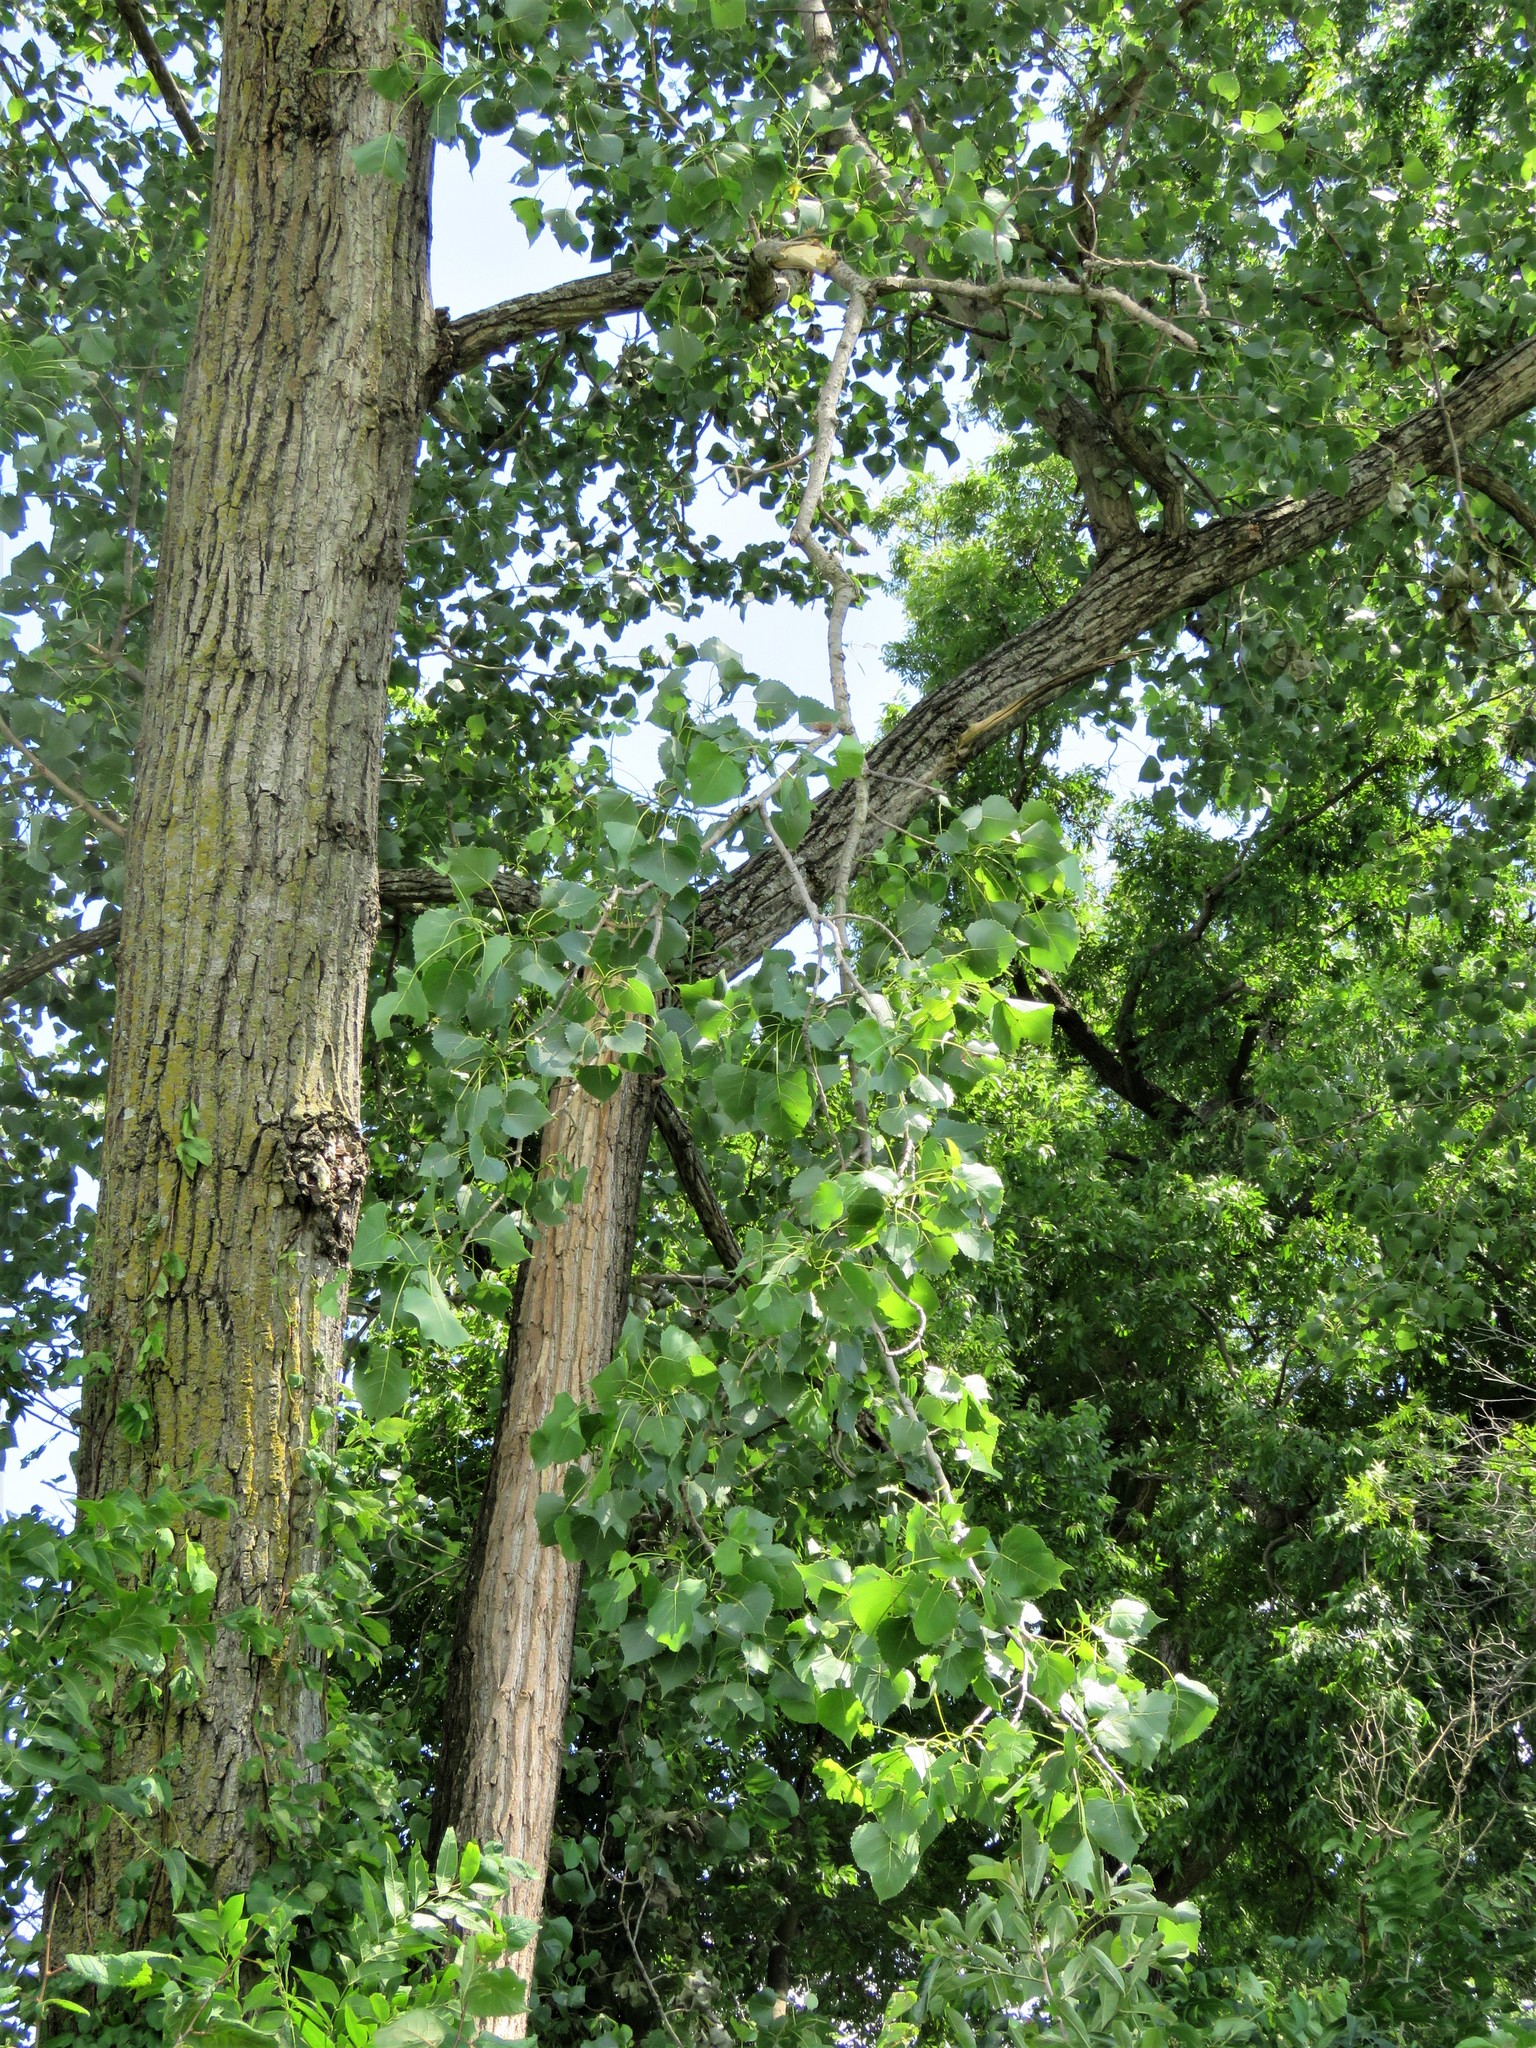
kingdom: Plantae
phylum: Tracheophyta
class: Magnoliopsida
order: Malpighiales
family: Salicaceae
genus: Populus
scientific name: Populus deltoides
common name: Eastern cottonwood
